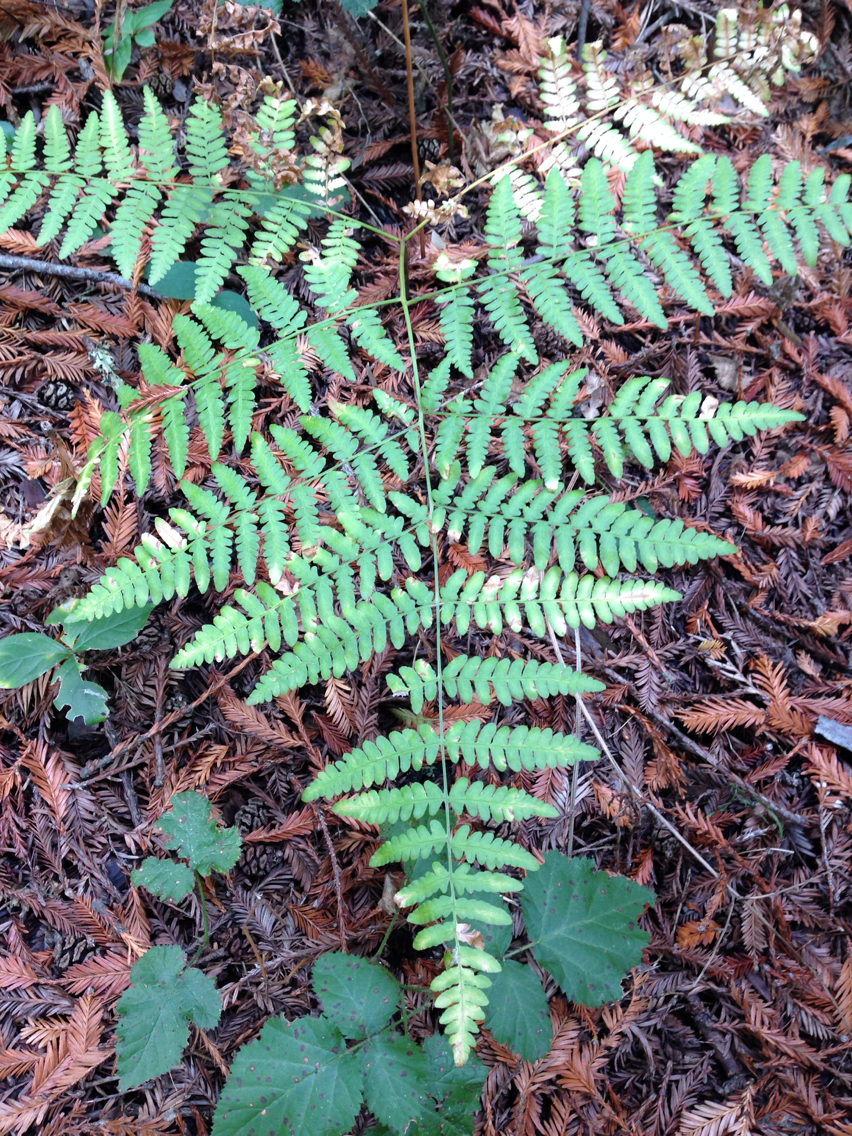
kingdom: Plantae
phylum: Tracheophyta
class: Polypodiopsida
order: Polypodiales
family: Dennstaedtiaceae
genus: Pteridium
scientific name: Pteridium aquilinum
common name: Bracken
